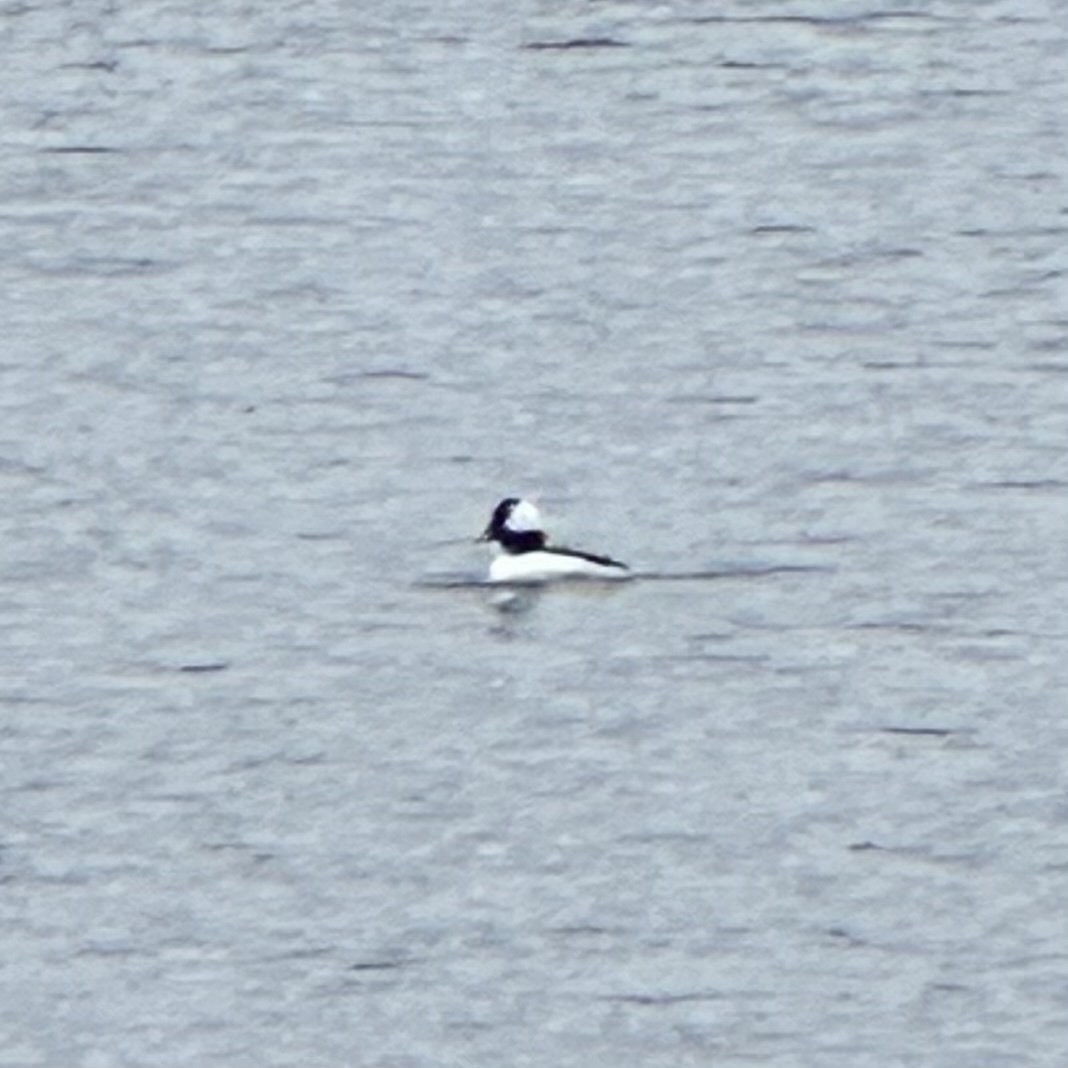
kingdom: Animalia
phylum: Chordata
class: Aves
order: Anseriformes
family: Anatidae
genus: Bucephala
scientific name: Bucephala albeola
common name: Bufflehead
